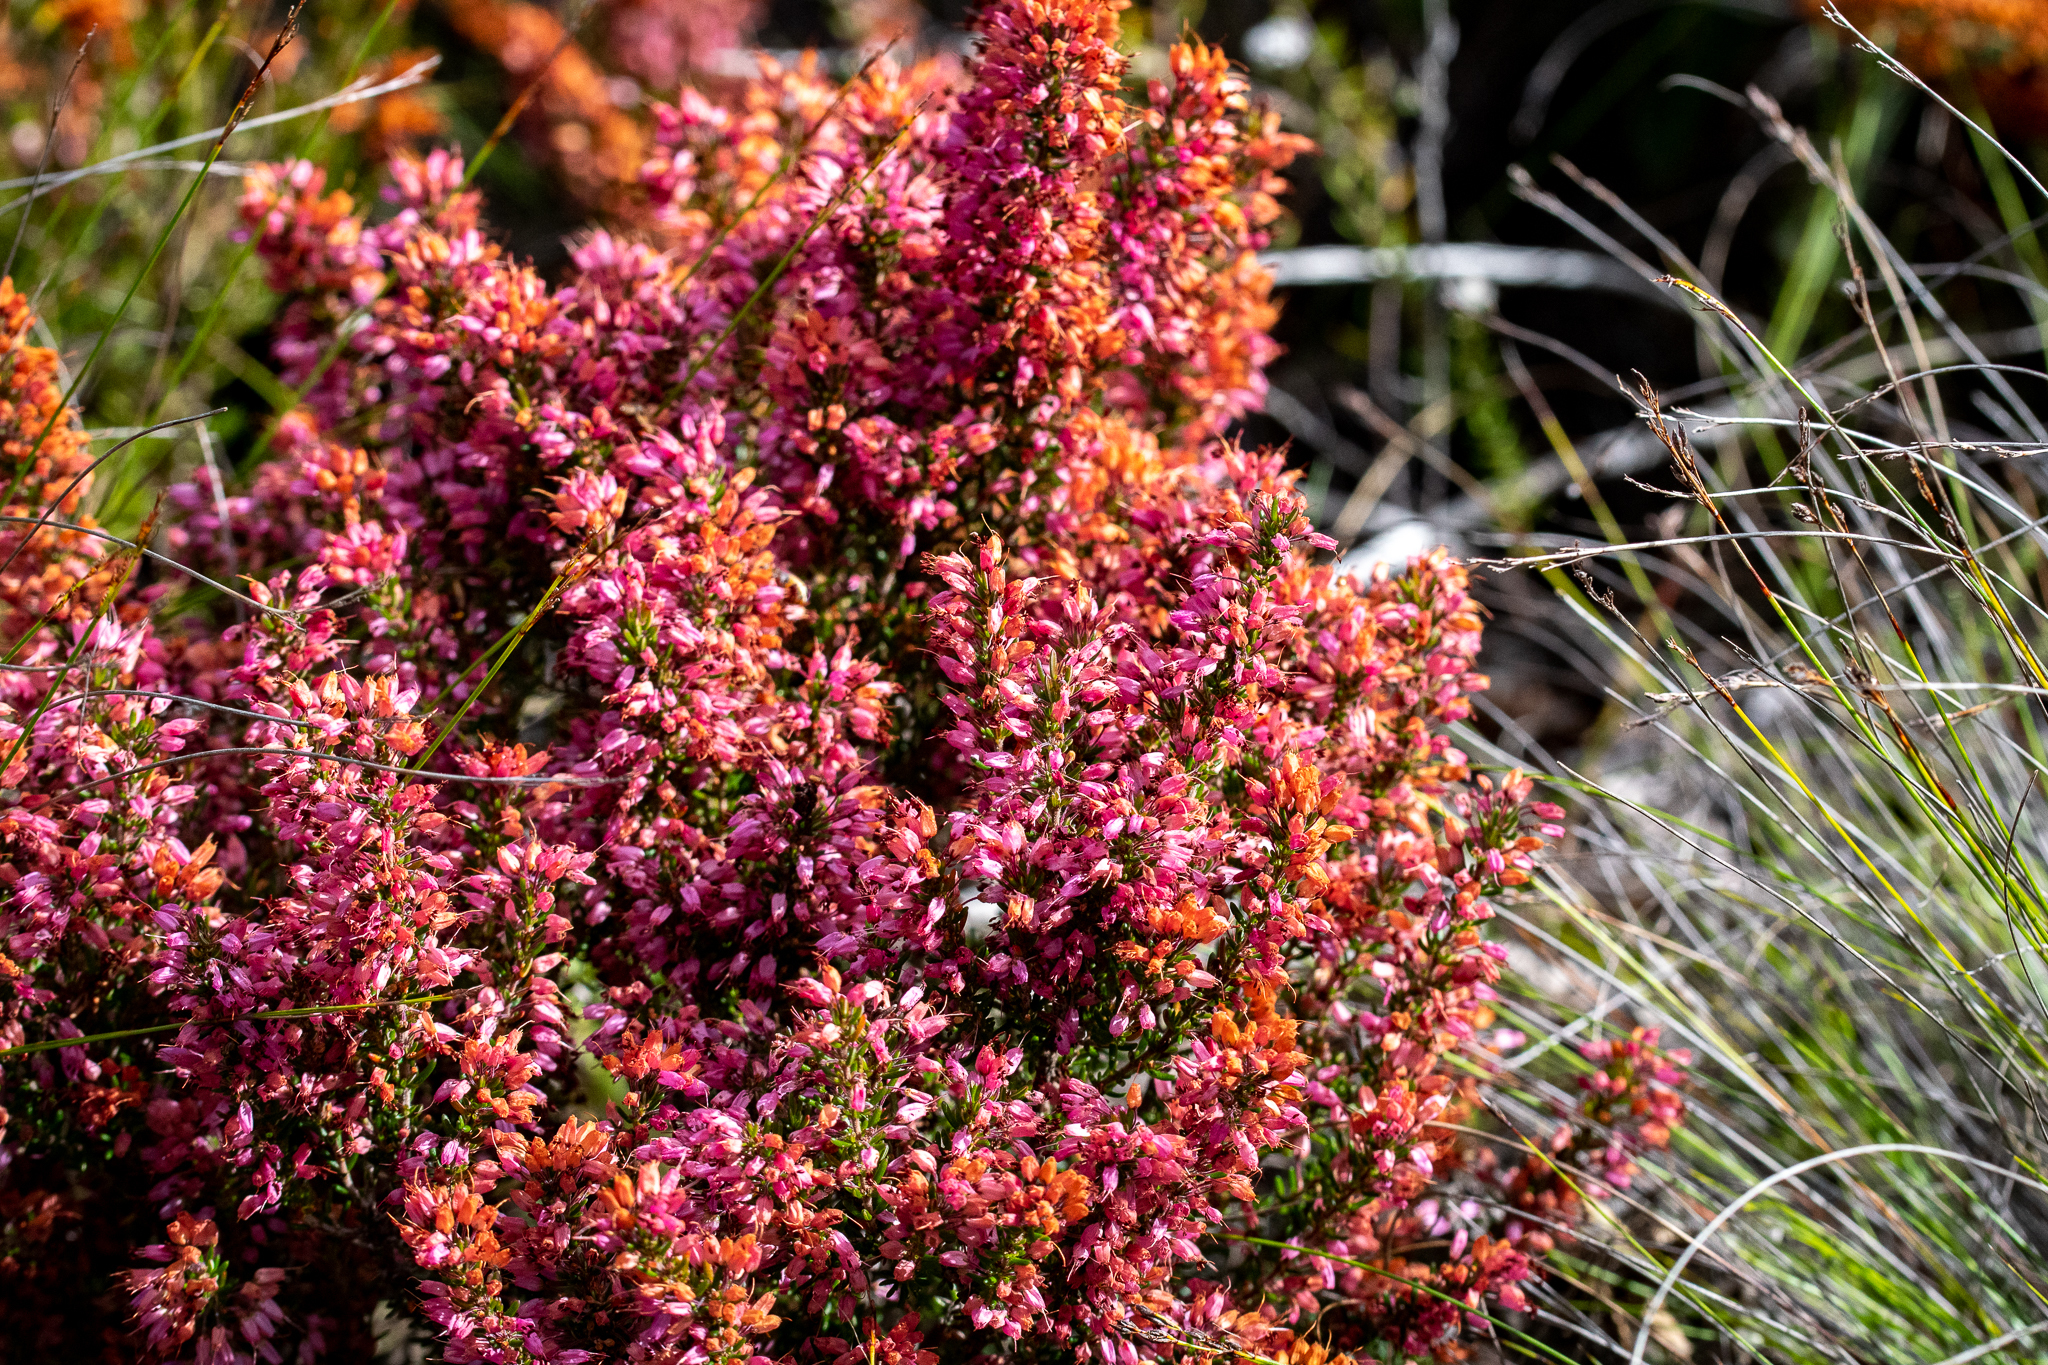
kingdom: Plantae
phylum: Tracheophyta
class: Magnoliopsida
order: Ericales
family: Ericaceae
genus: Erica
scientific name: Erica nudiflora
